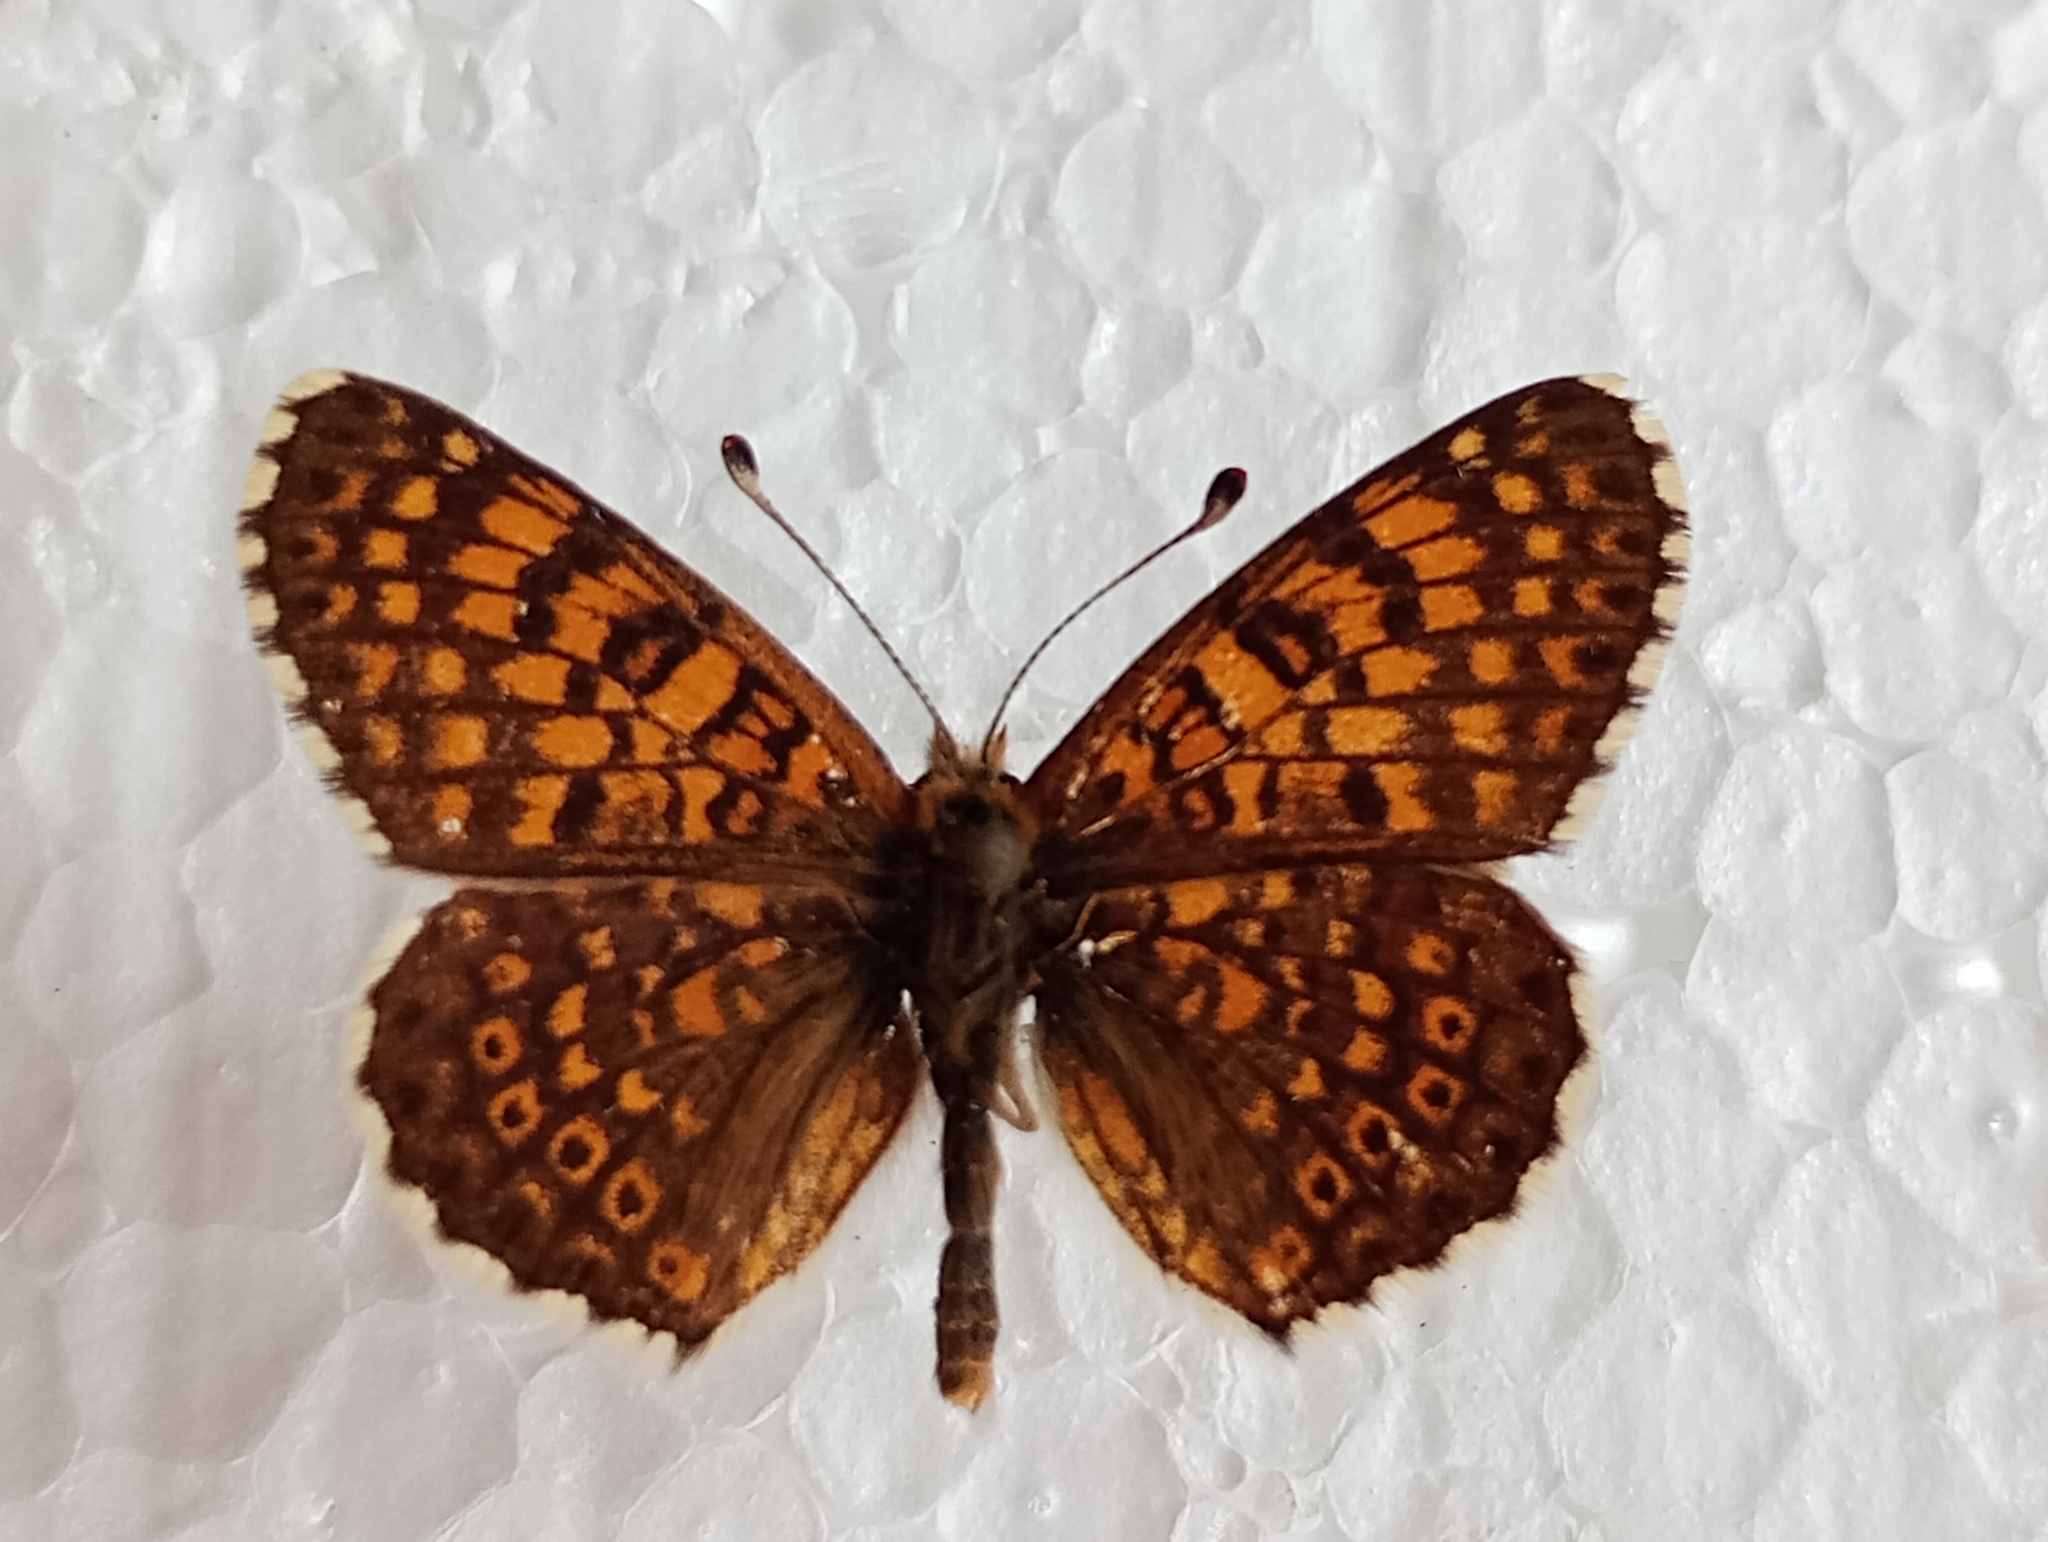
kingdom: Animalia
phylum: Arthropoda
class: Insecta
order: Lepidoptera
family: Nymphalidae
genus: Melitaea
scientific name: Melitaea cinxia
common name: Glanville fritillary
